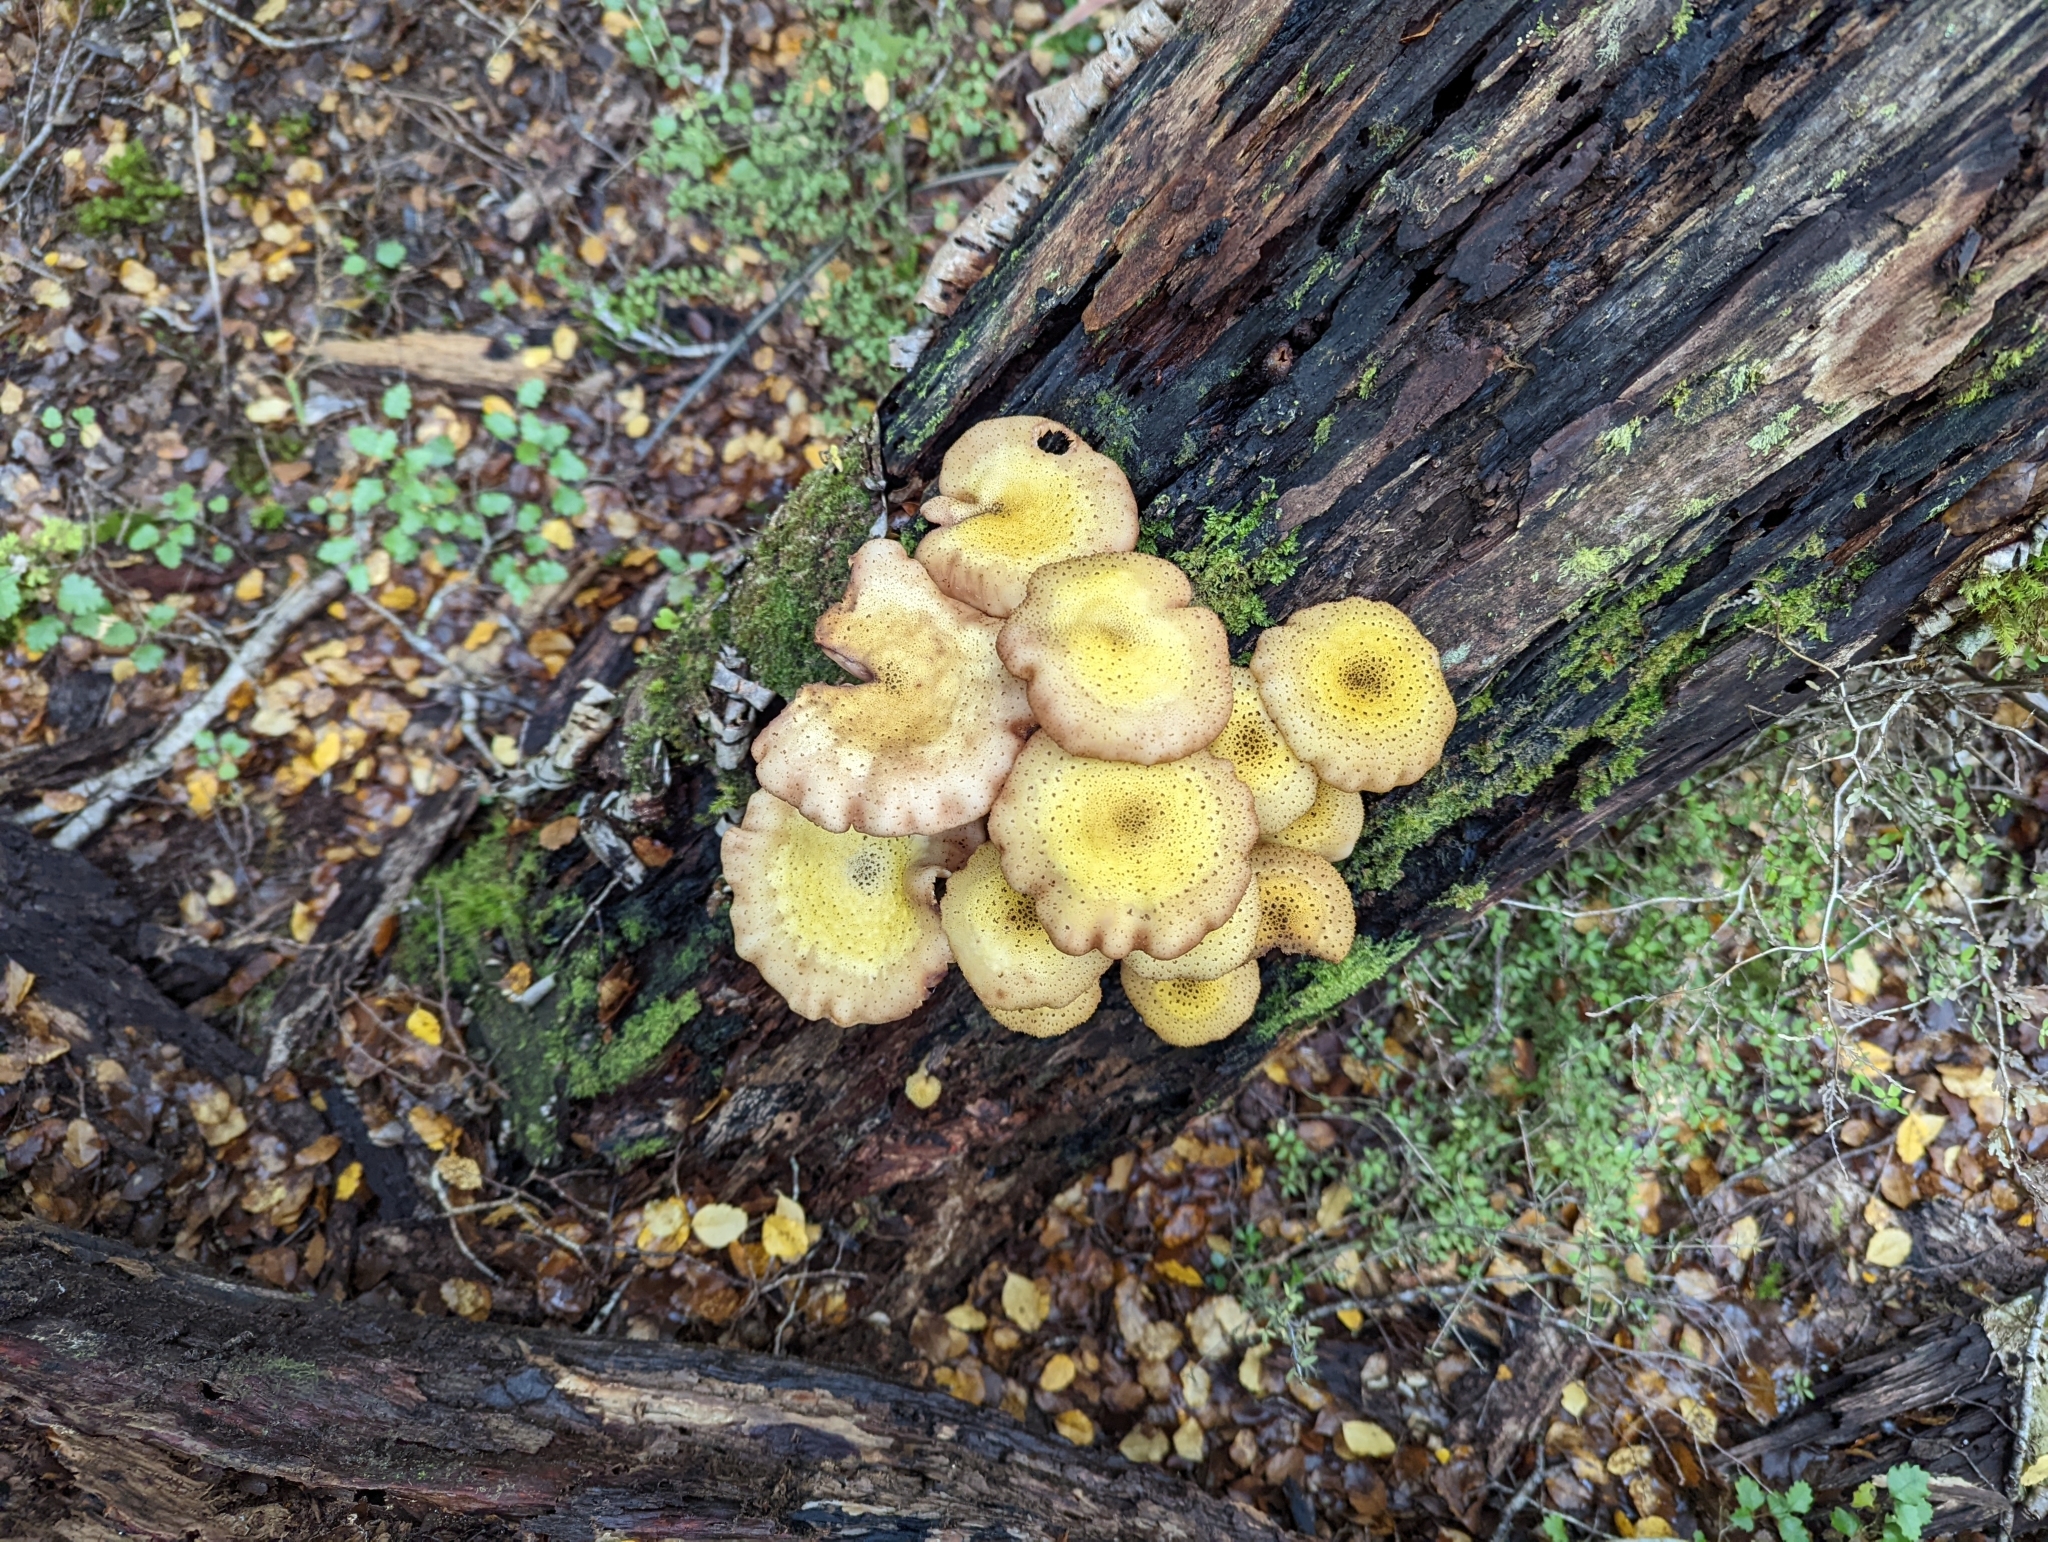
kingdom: Fungi
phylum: Basidiomycota
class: Agaricomycetes
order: Agaricales
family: Physalacriaceae
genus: Armillaria
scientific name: Armillaria limonea
